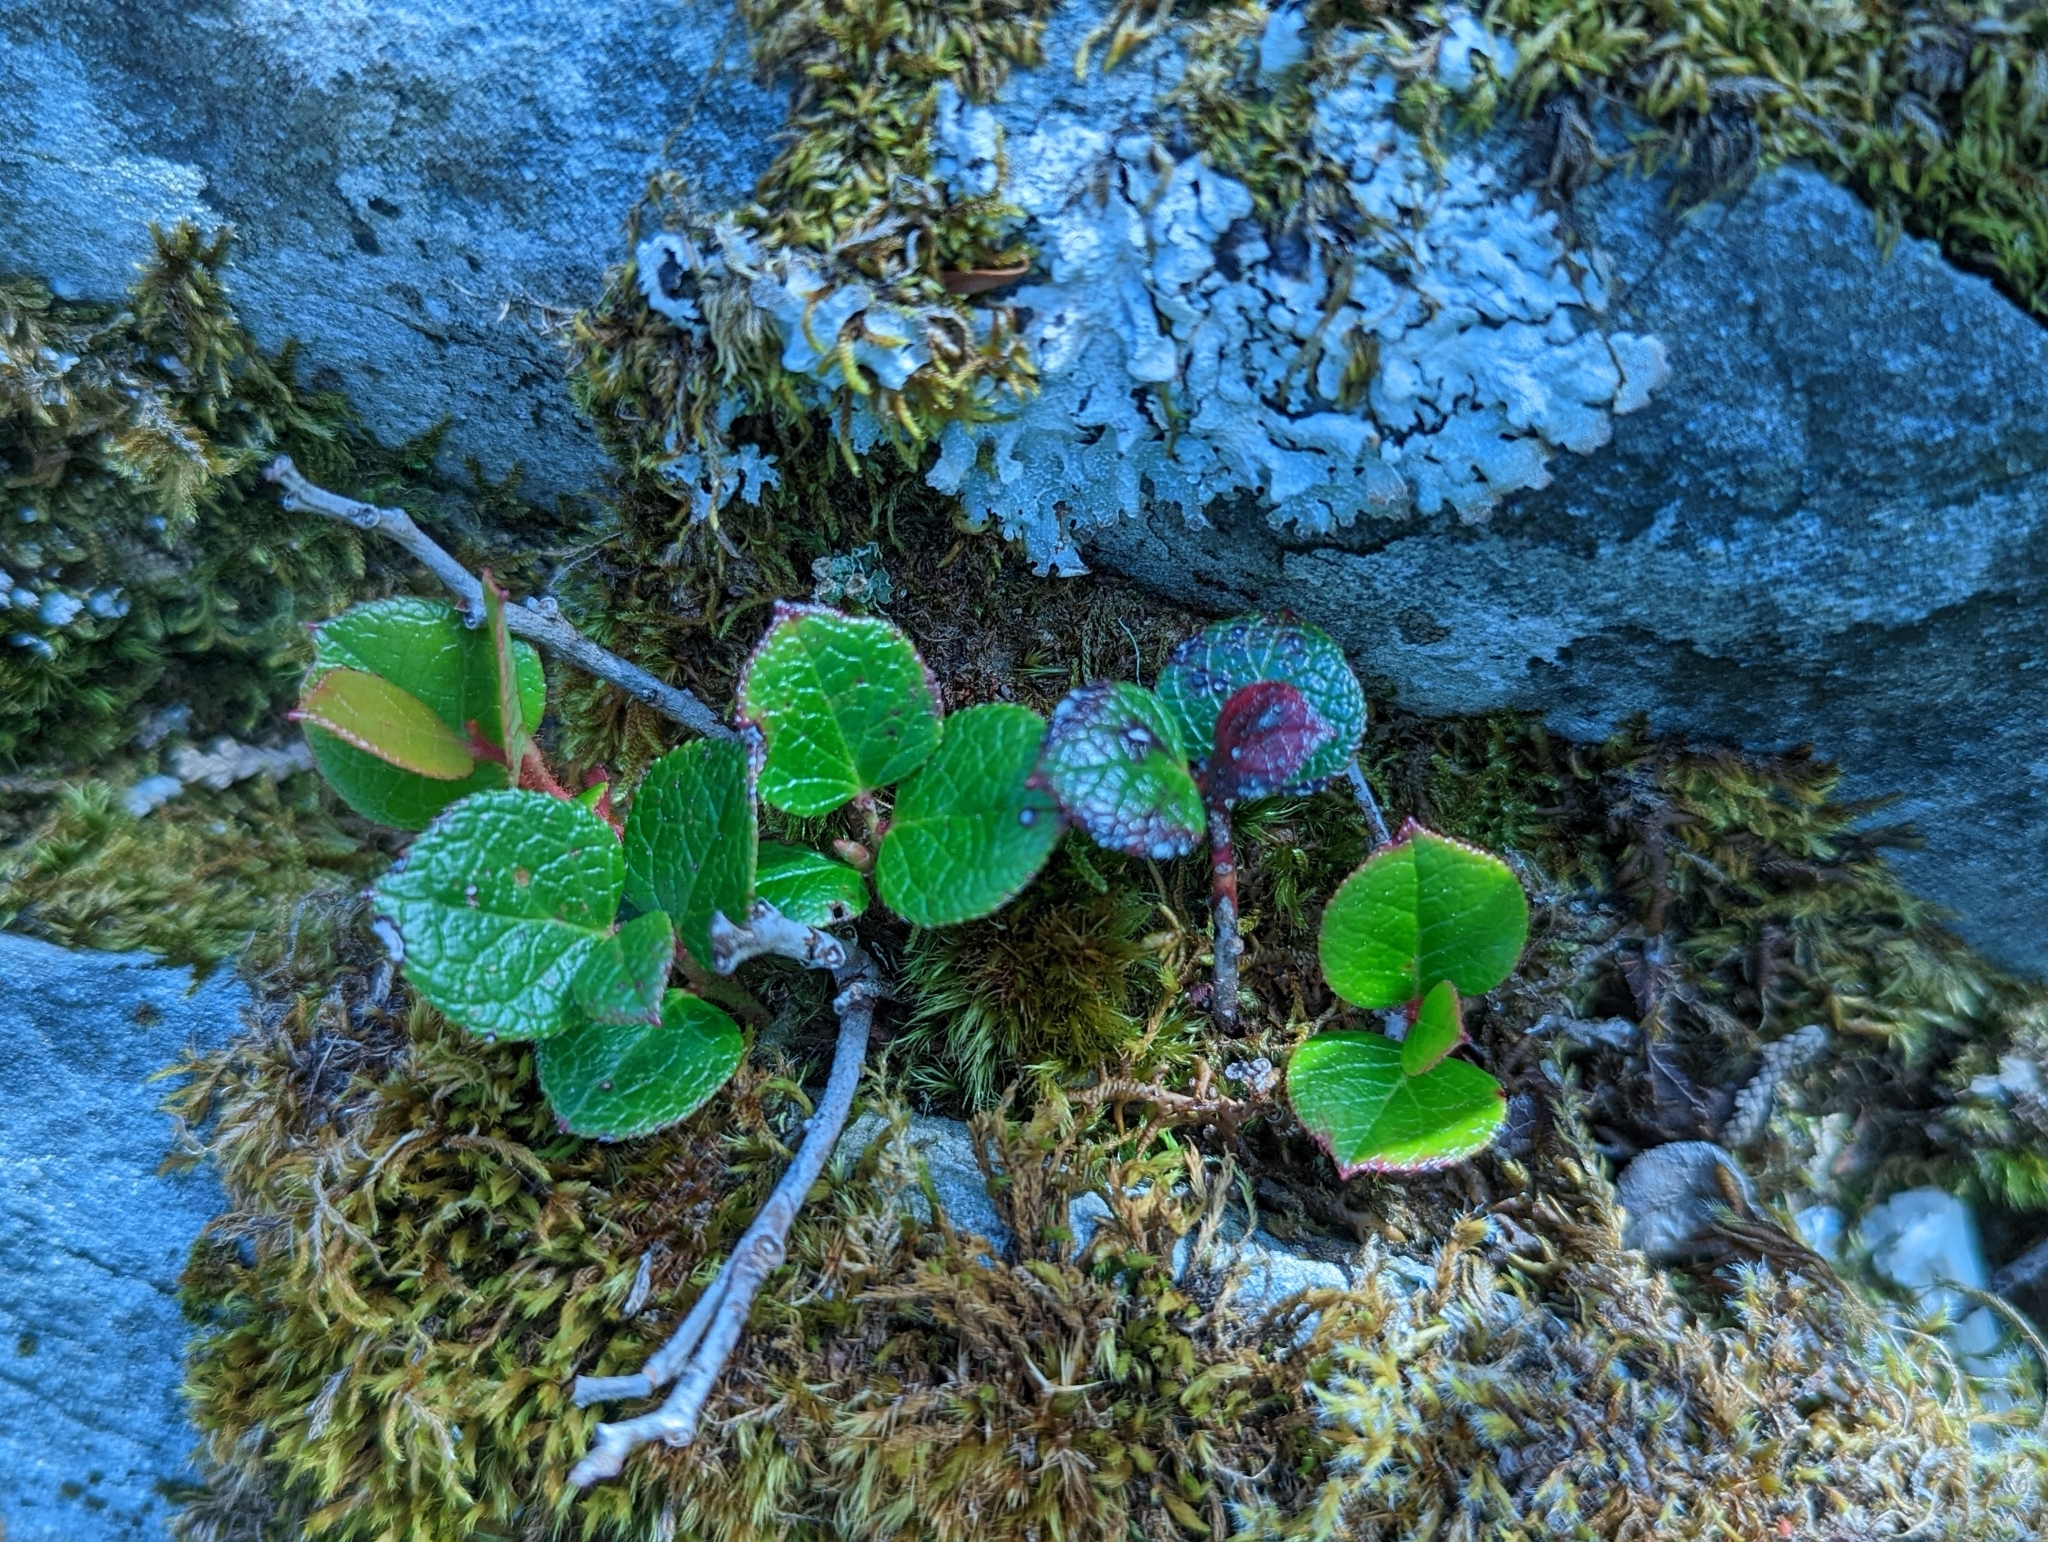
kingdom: Plantae
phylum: Tracheophyta
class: Magnoliopsida
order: Ericales
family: Ericaceae
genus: Gaultheria
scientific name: Gaultheria shallon
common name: Shallon
